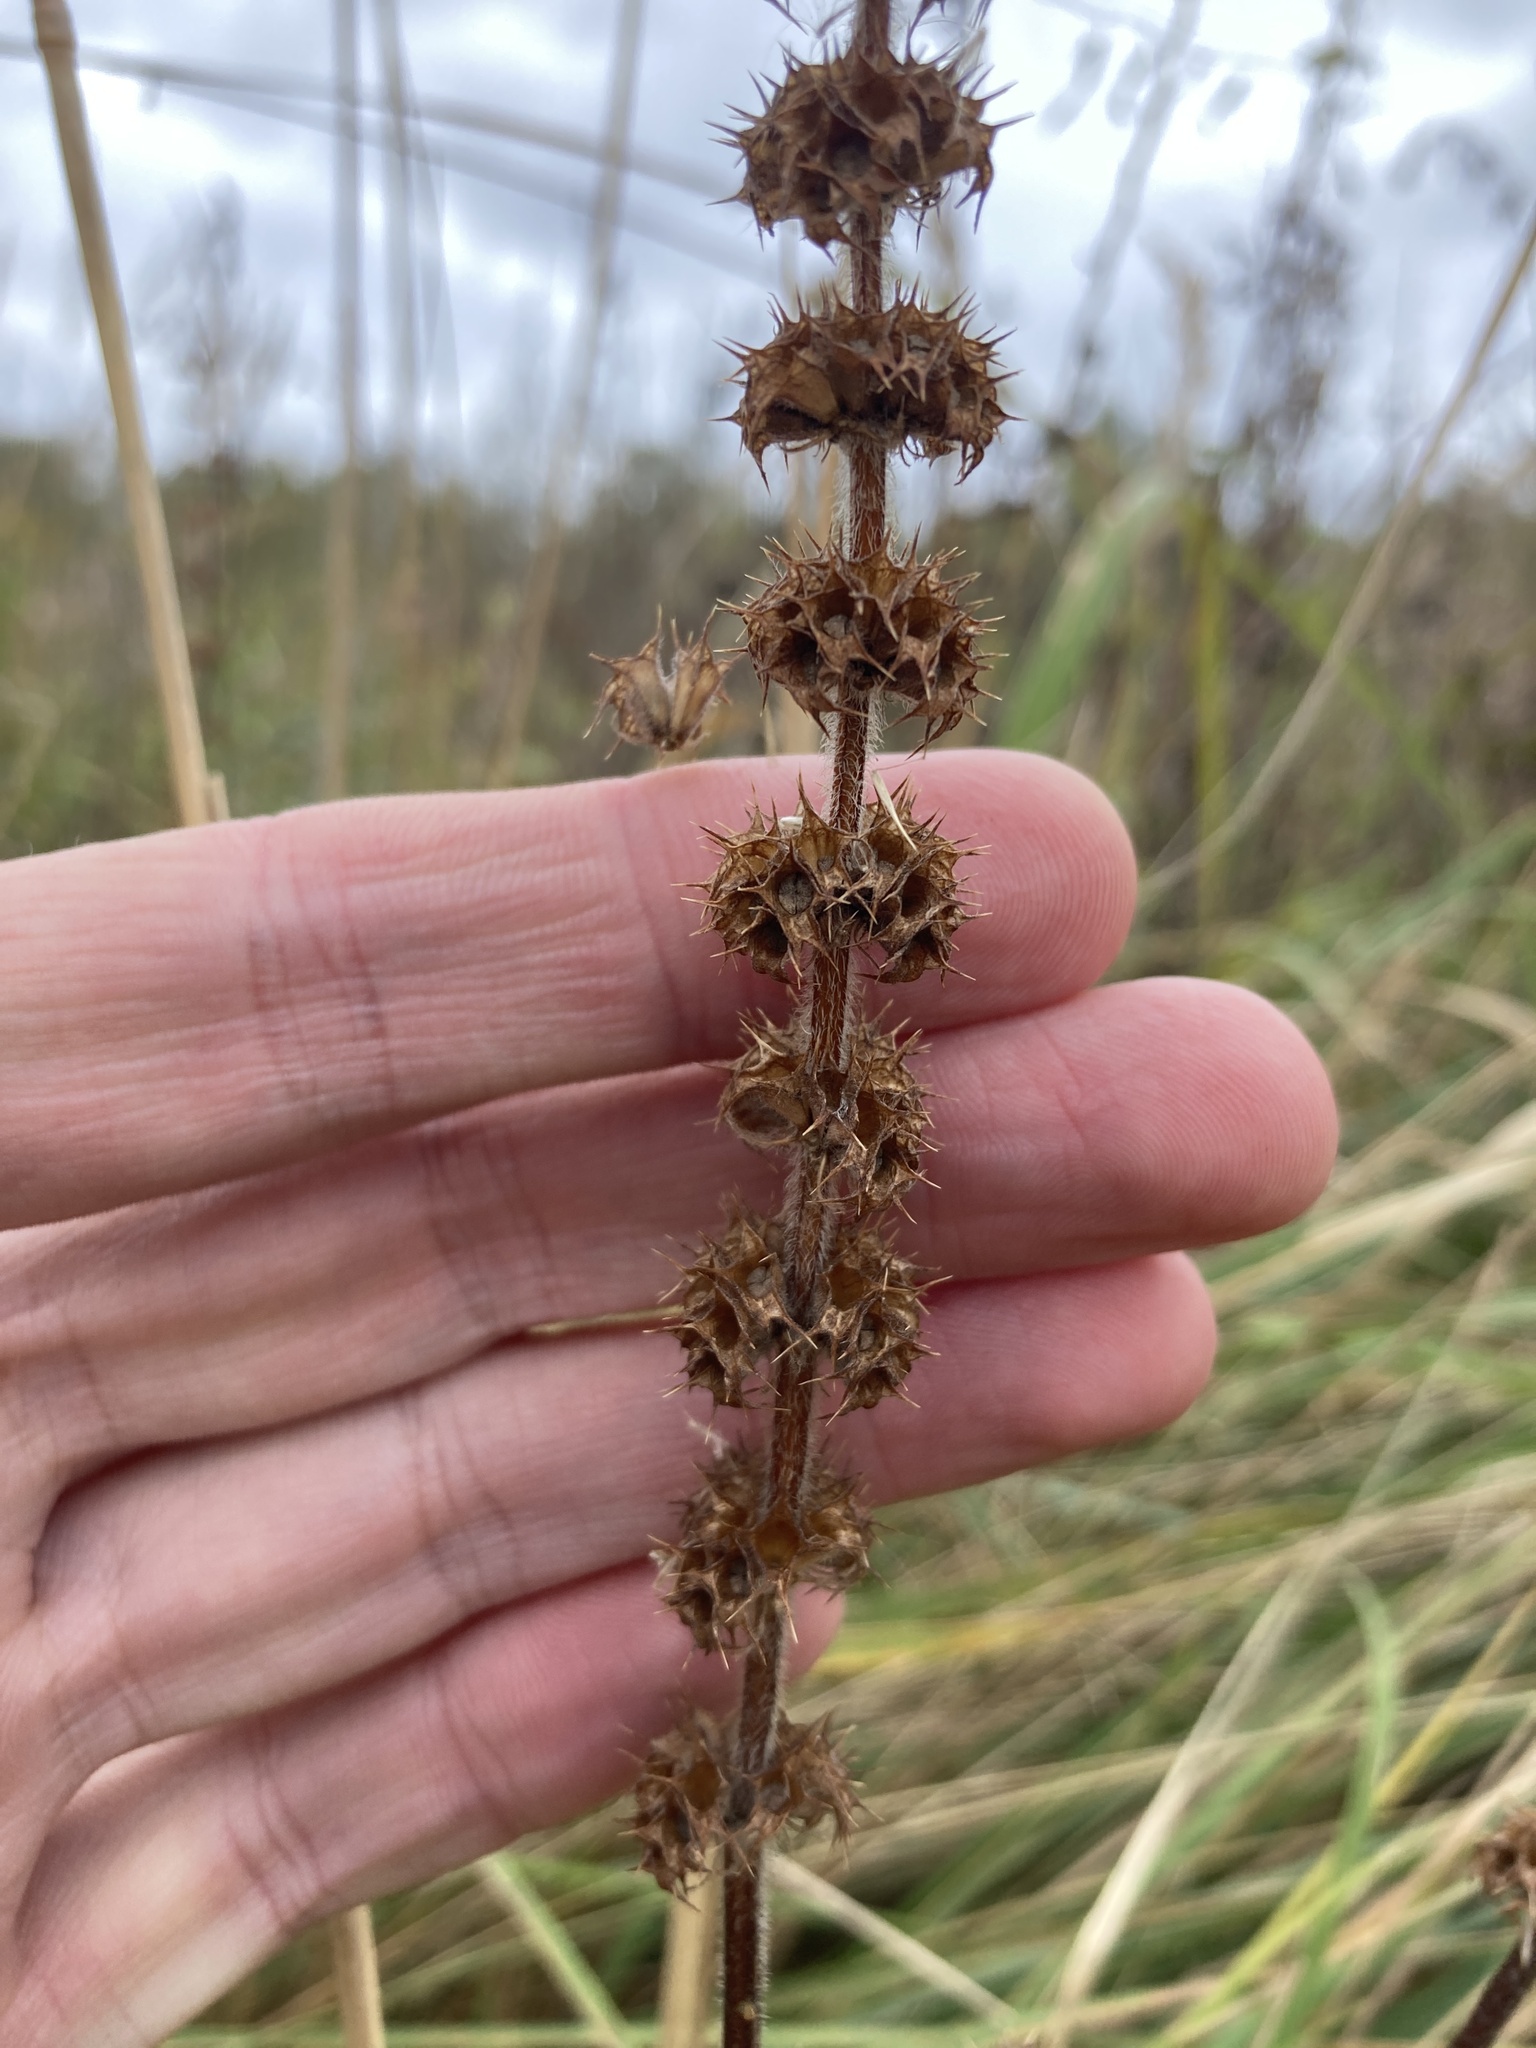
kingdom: Plantae
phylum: Tracheophyta
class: Magnoliopsida
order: Lamiales
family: Lamiaceae
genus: Leonurus
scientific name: Leonurus quinquelobatus
